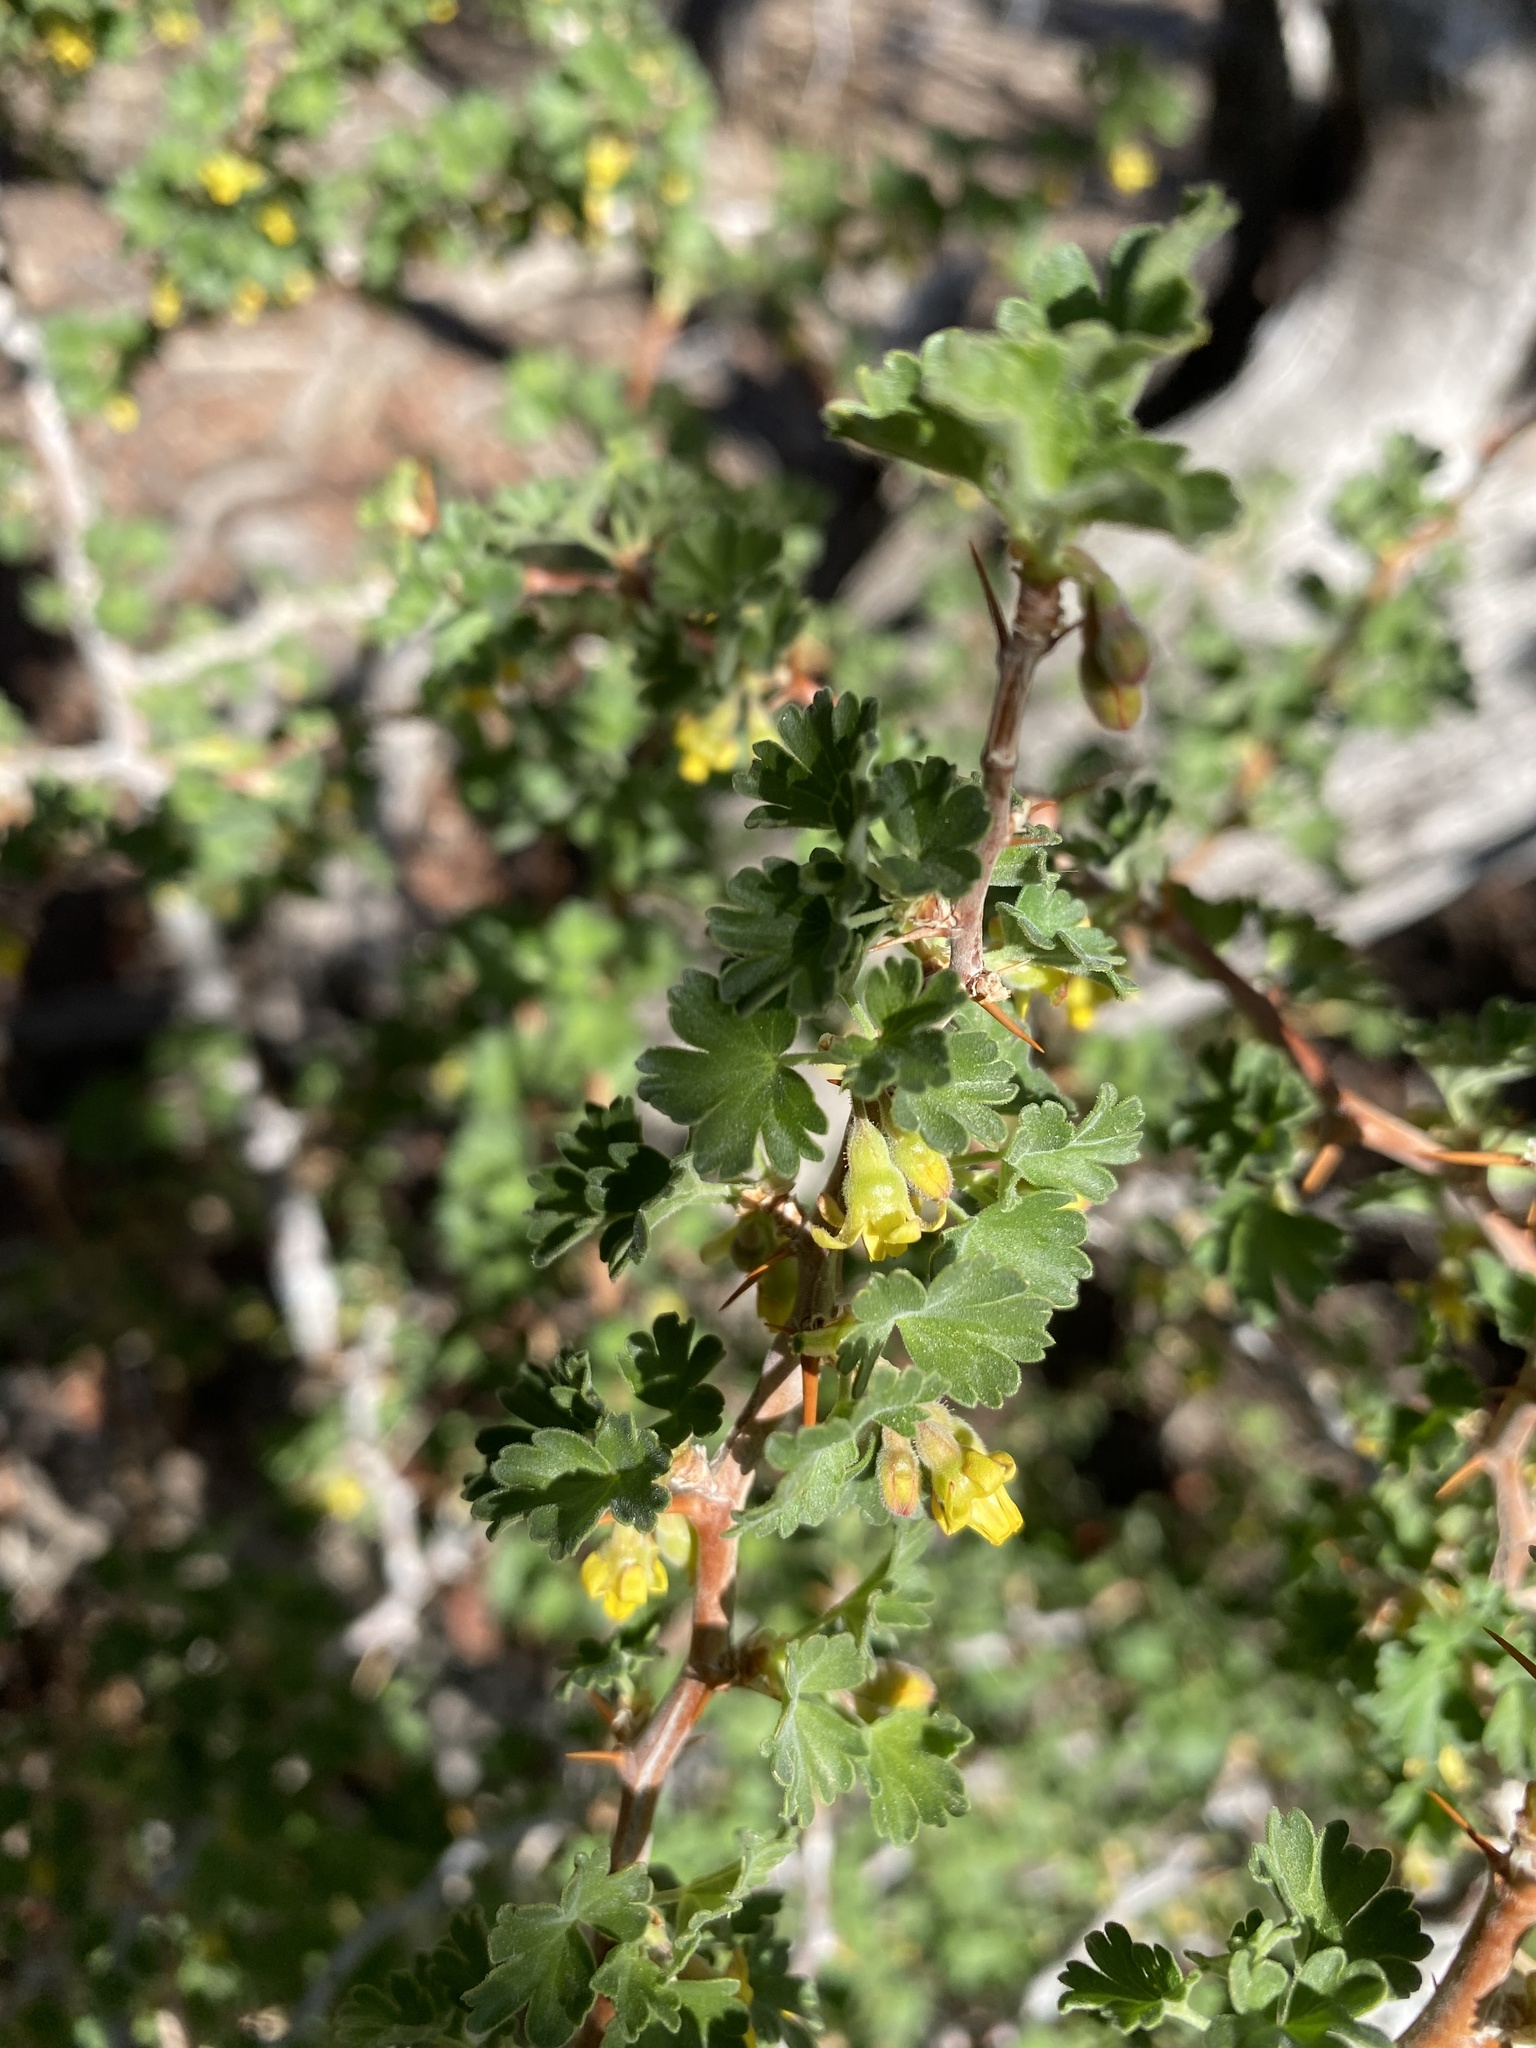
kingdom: Plantae
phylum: Tracheophyta
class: Magnoliopsida
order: Saxifragales
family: Grossulariaceae
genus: Ribes
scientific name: Ribes velutinum
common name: Desert gooseberry
